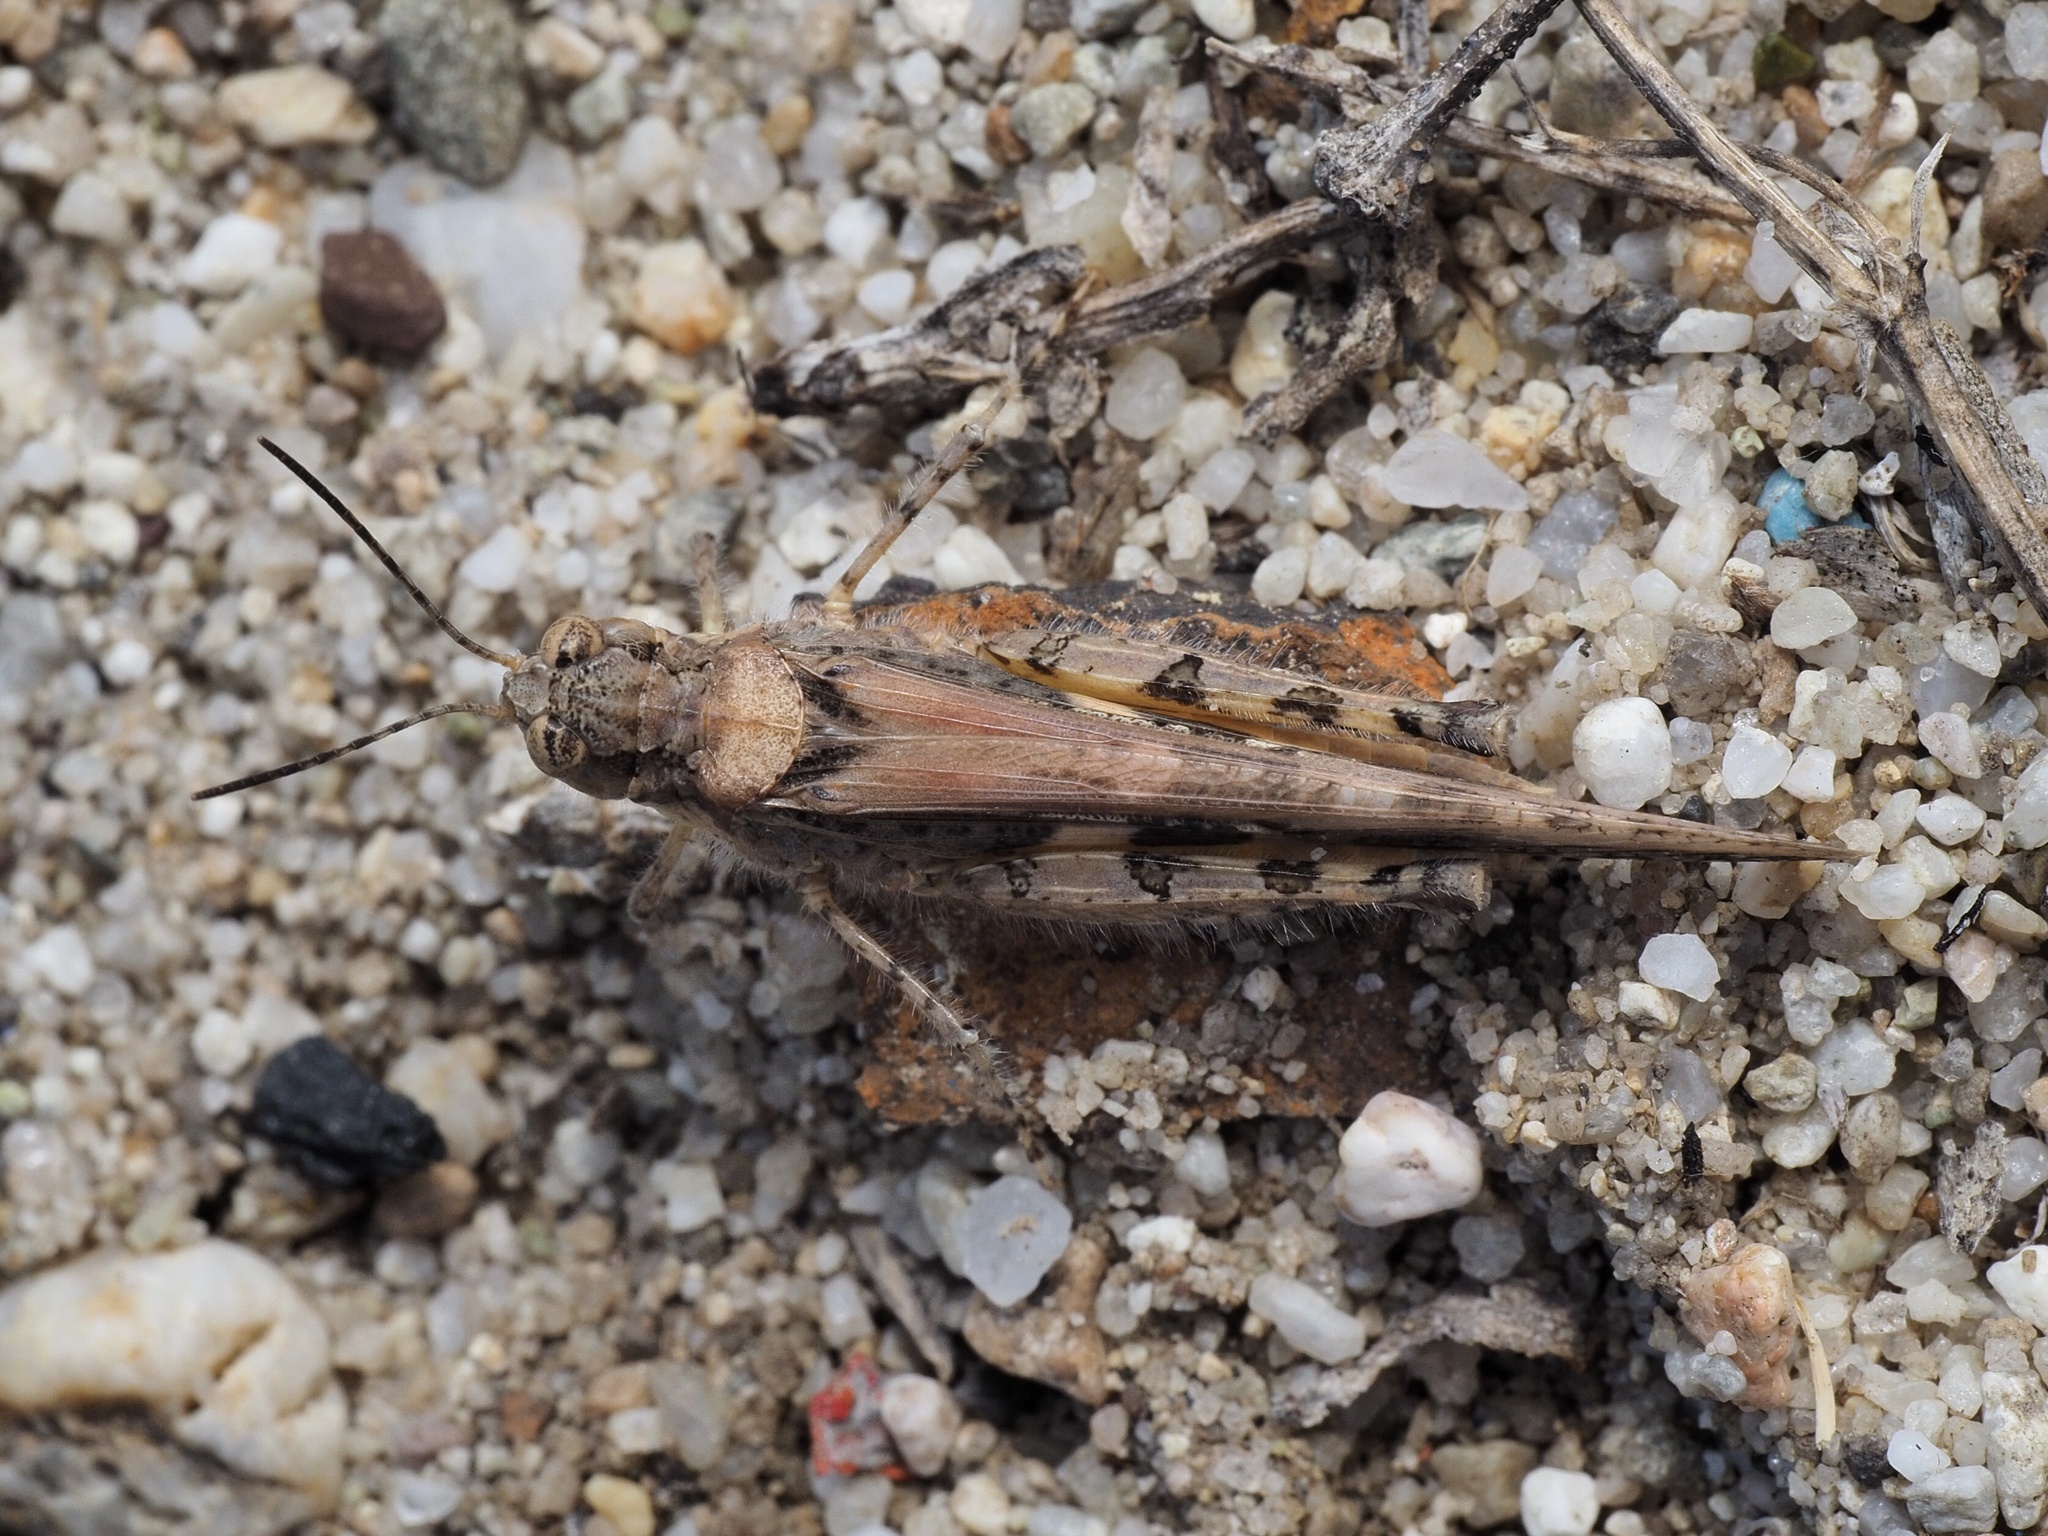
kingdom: Animalia
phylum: Arthropoda
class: Insecta
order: Orthoptera
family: Acrididae
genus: Acrotylus
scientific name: Acrotylus patruelis
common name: Slender burrowing grasshopper
